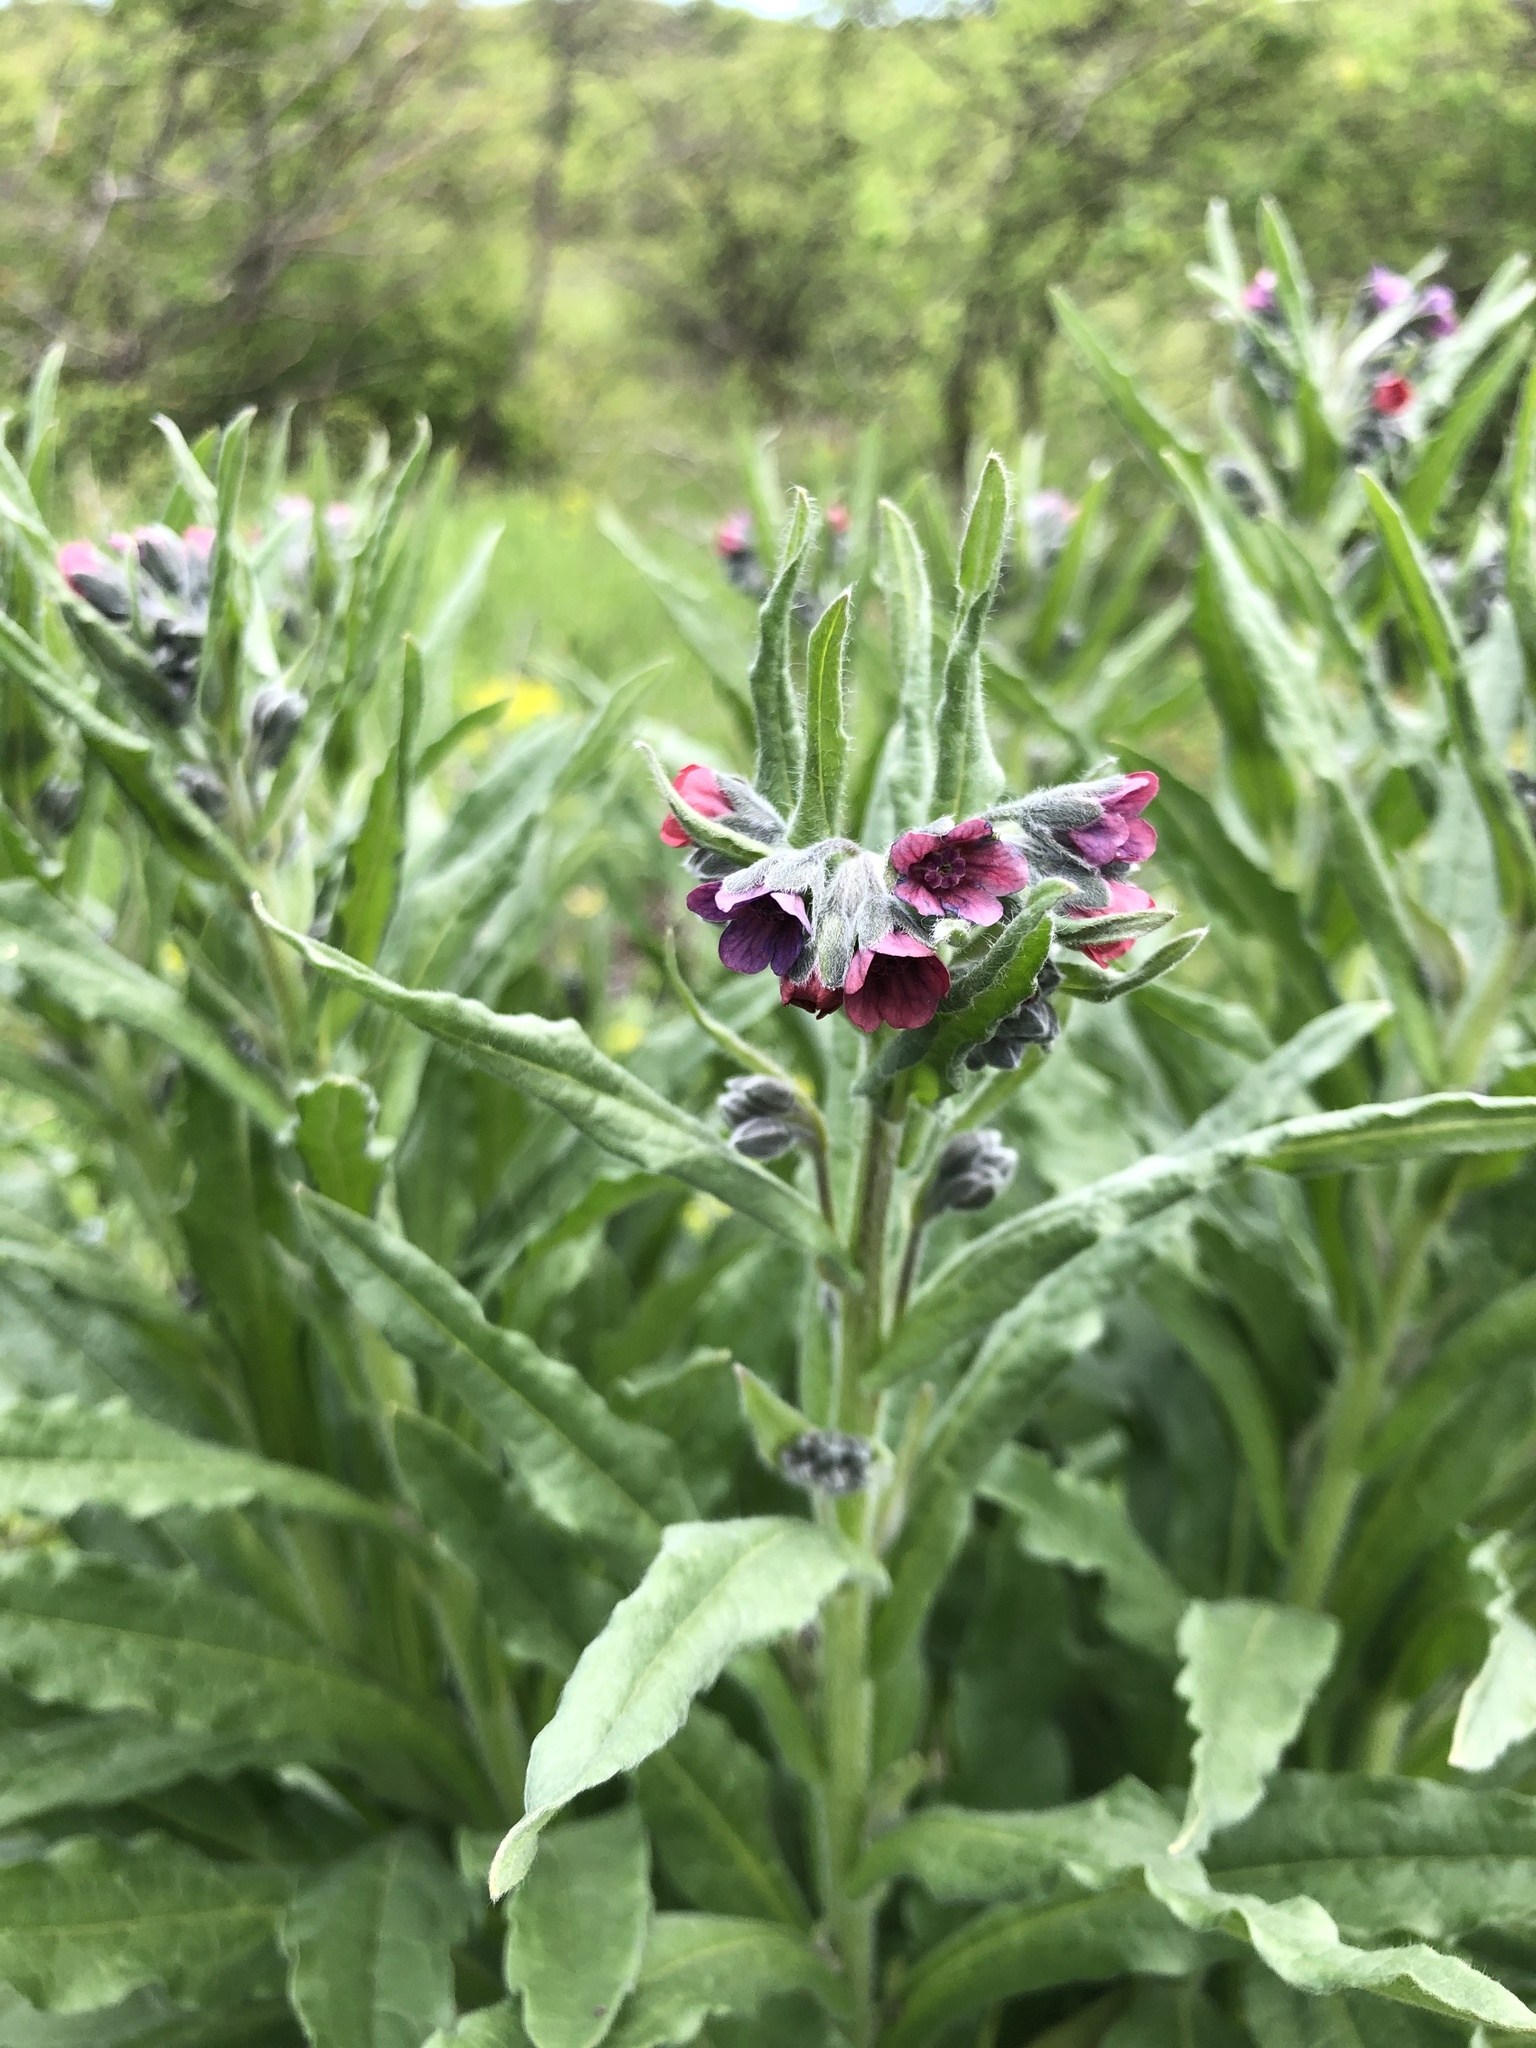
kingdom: Plantae
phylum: Tracheophyta
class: Magnoliopsida
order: Boraginales
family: Boraginaceae
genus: Cynoglossum
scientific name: Cynoglossum officinale
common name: Hound's-tongue
